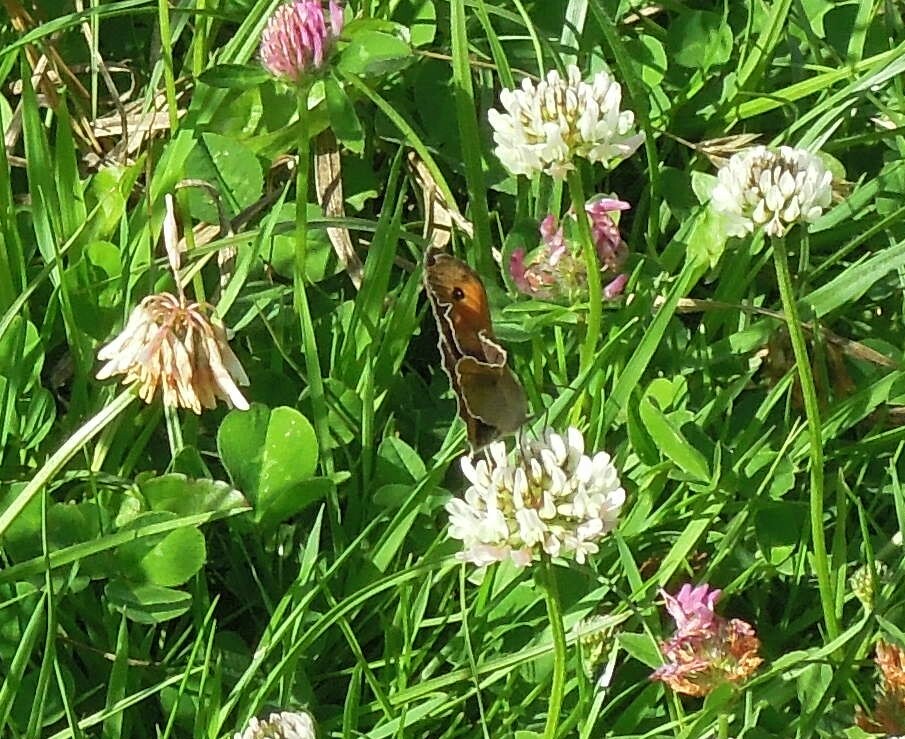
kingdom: Animalia
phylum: Arthropoda
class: Insecta
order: Lepidoptera
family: Nymphalidae
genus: Maniola
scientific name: Maniola jurtina
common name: Meadow brown
